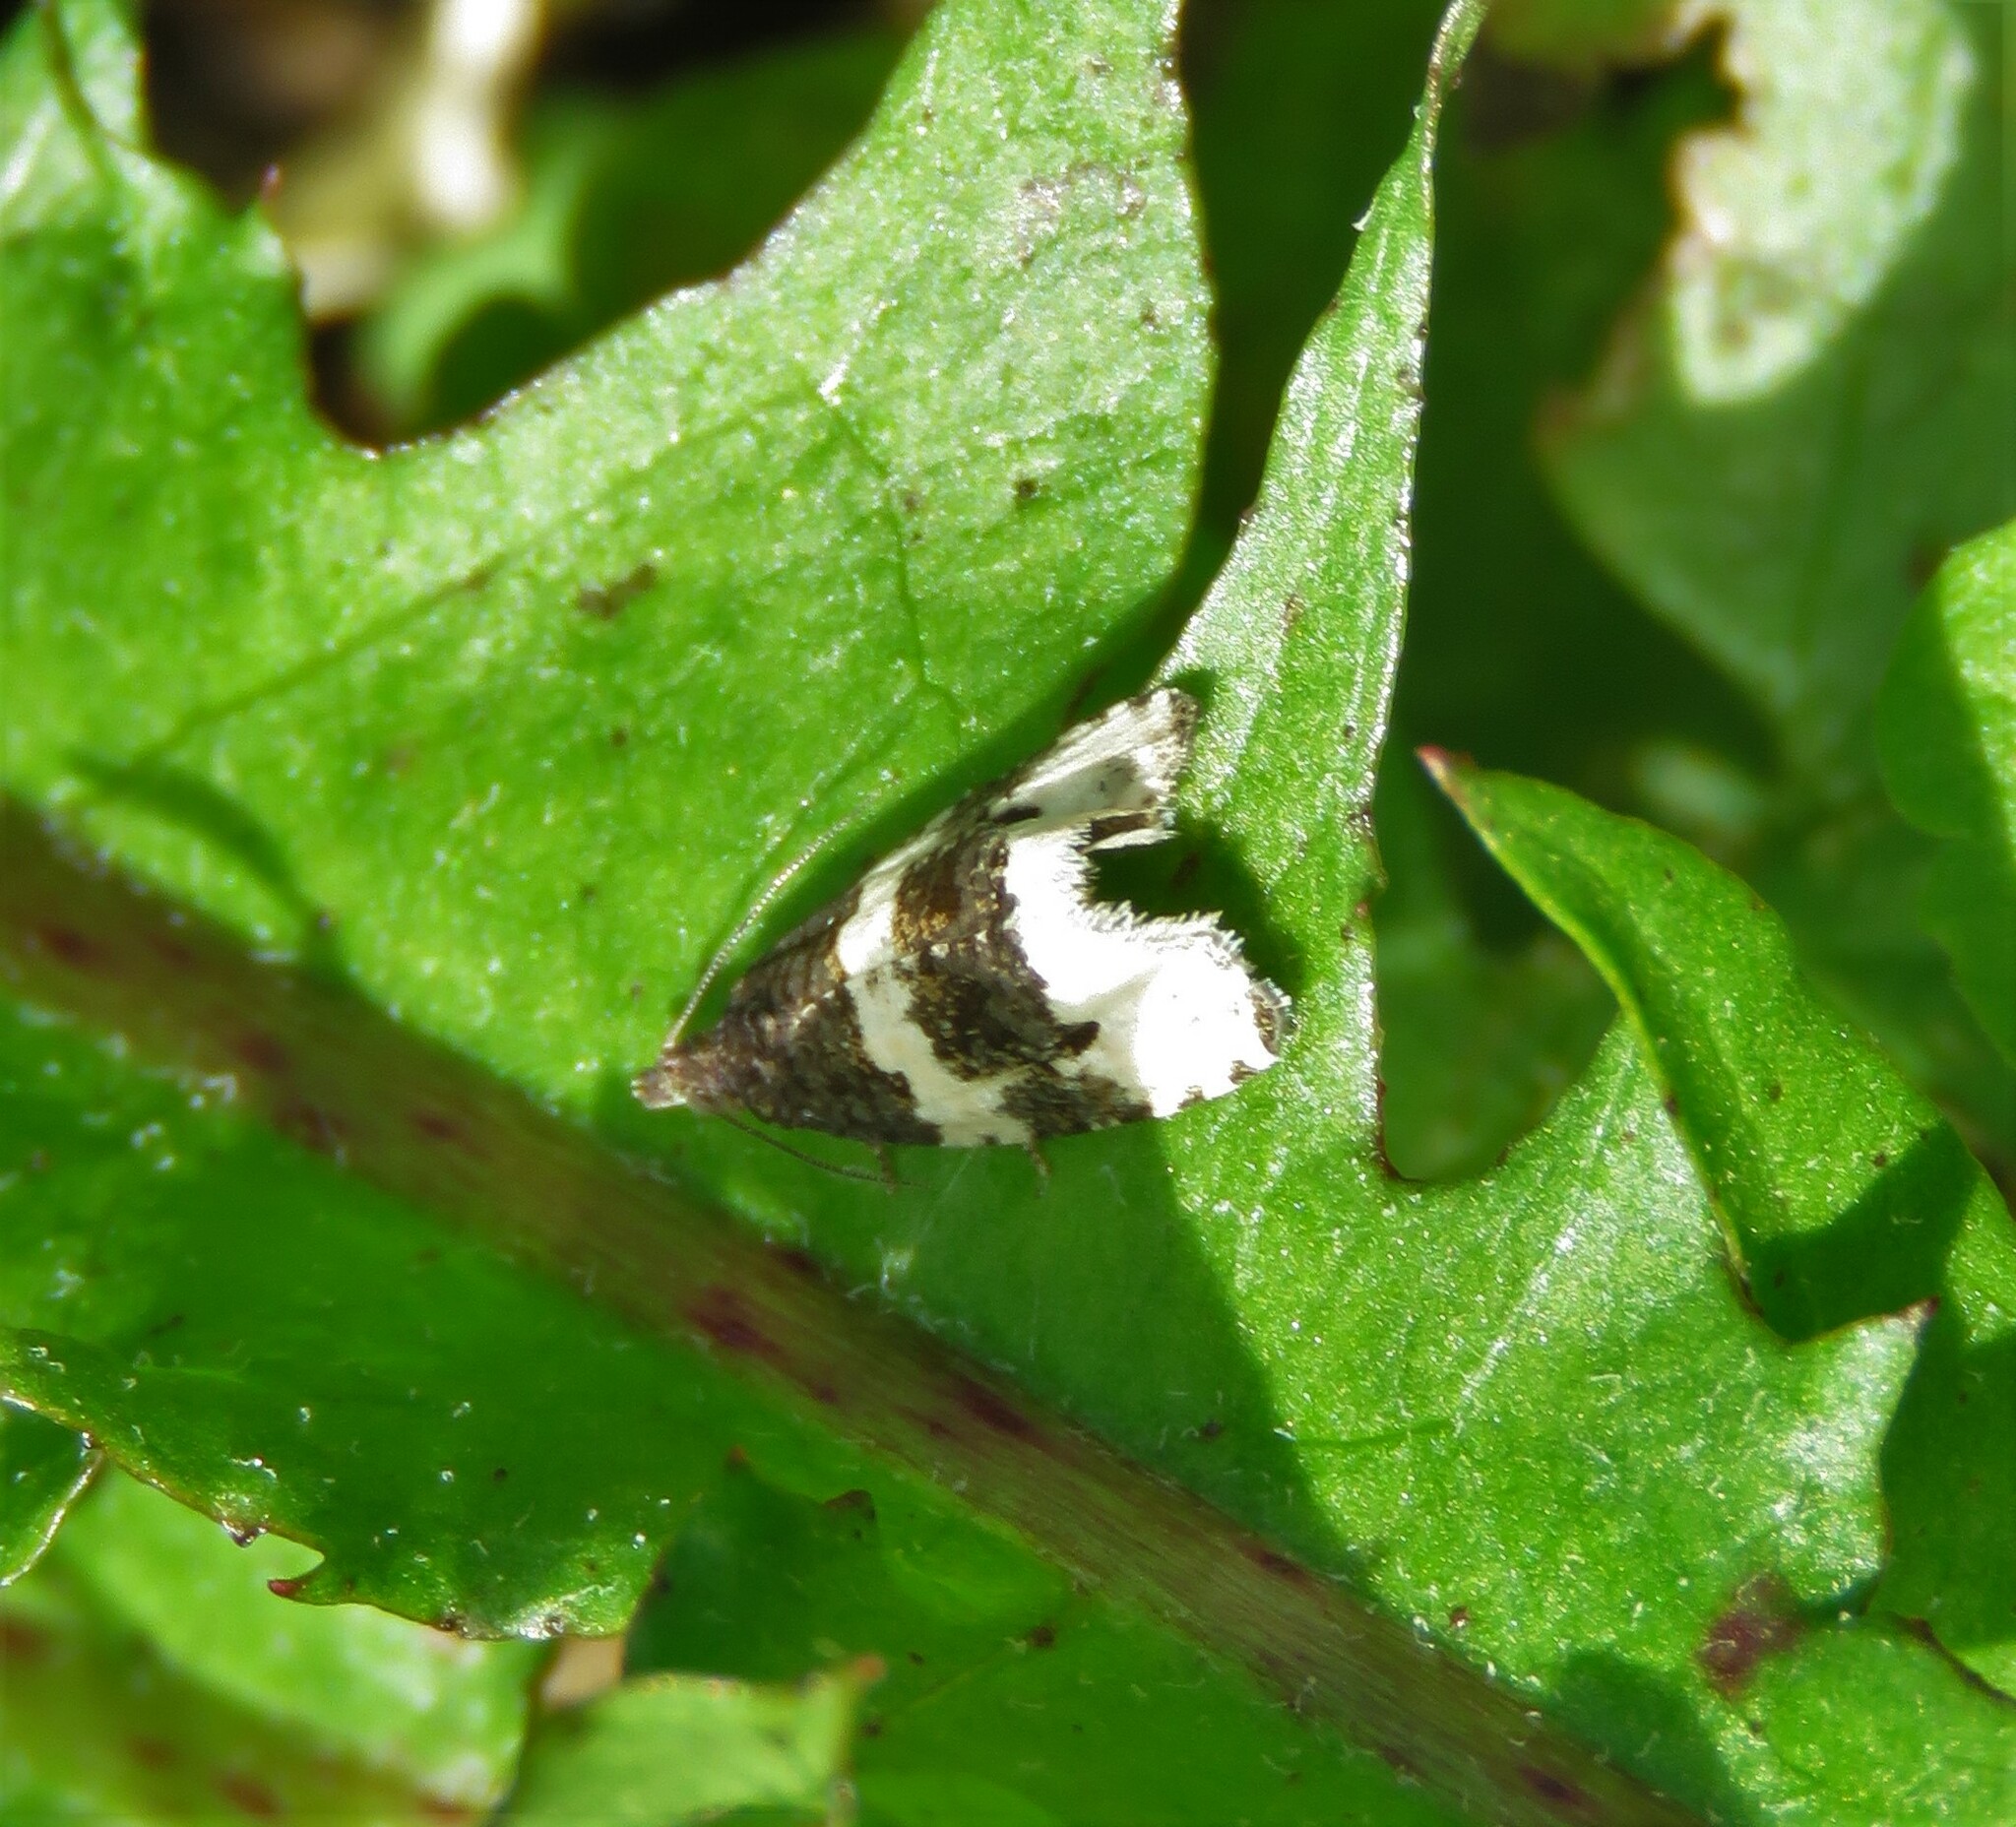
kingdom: Animalia
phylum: Arthropoda
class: Insecta
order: Lepidoptera
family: Tortricidae
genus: Olethreutes
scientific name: Olethreutes bipartitana
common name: Divided olethreutes moth
